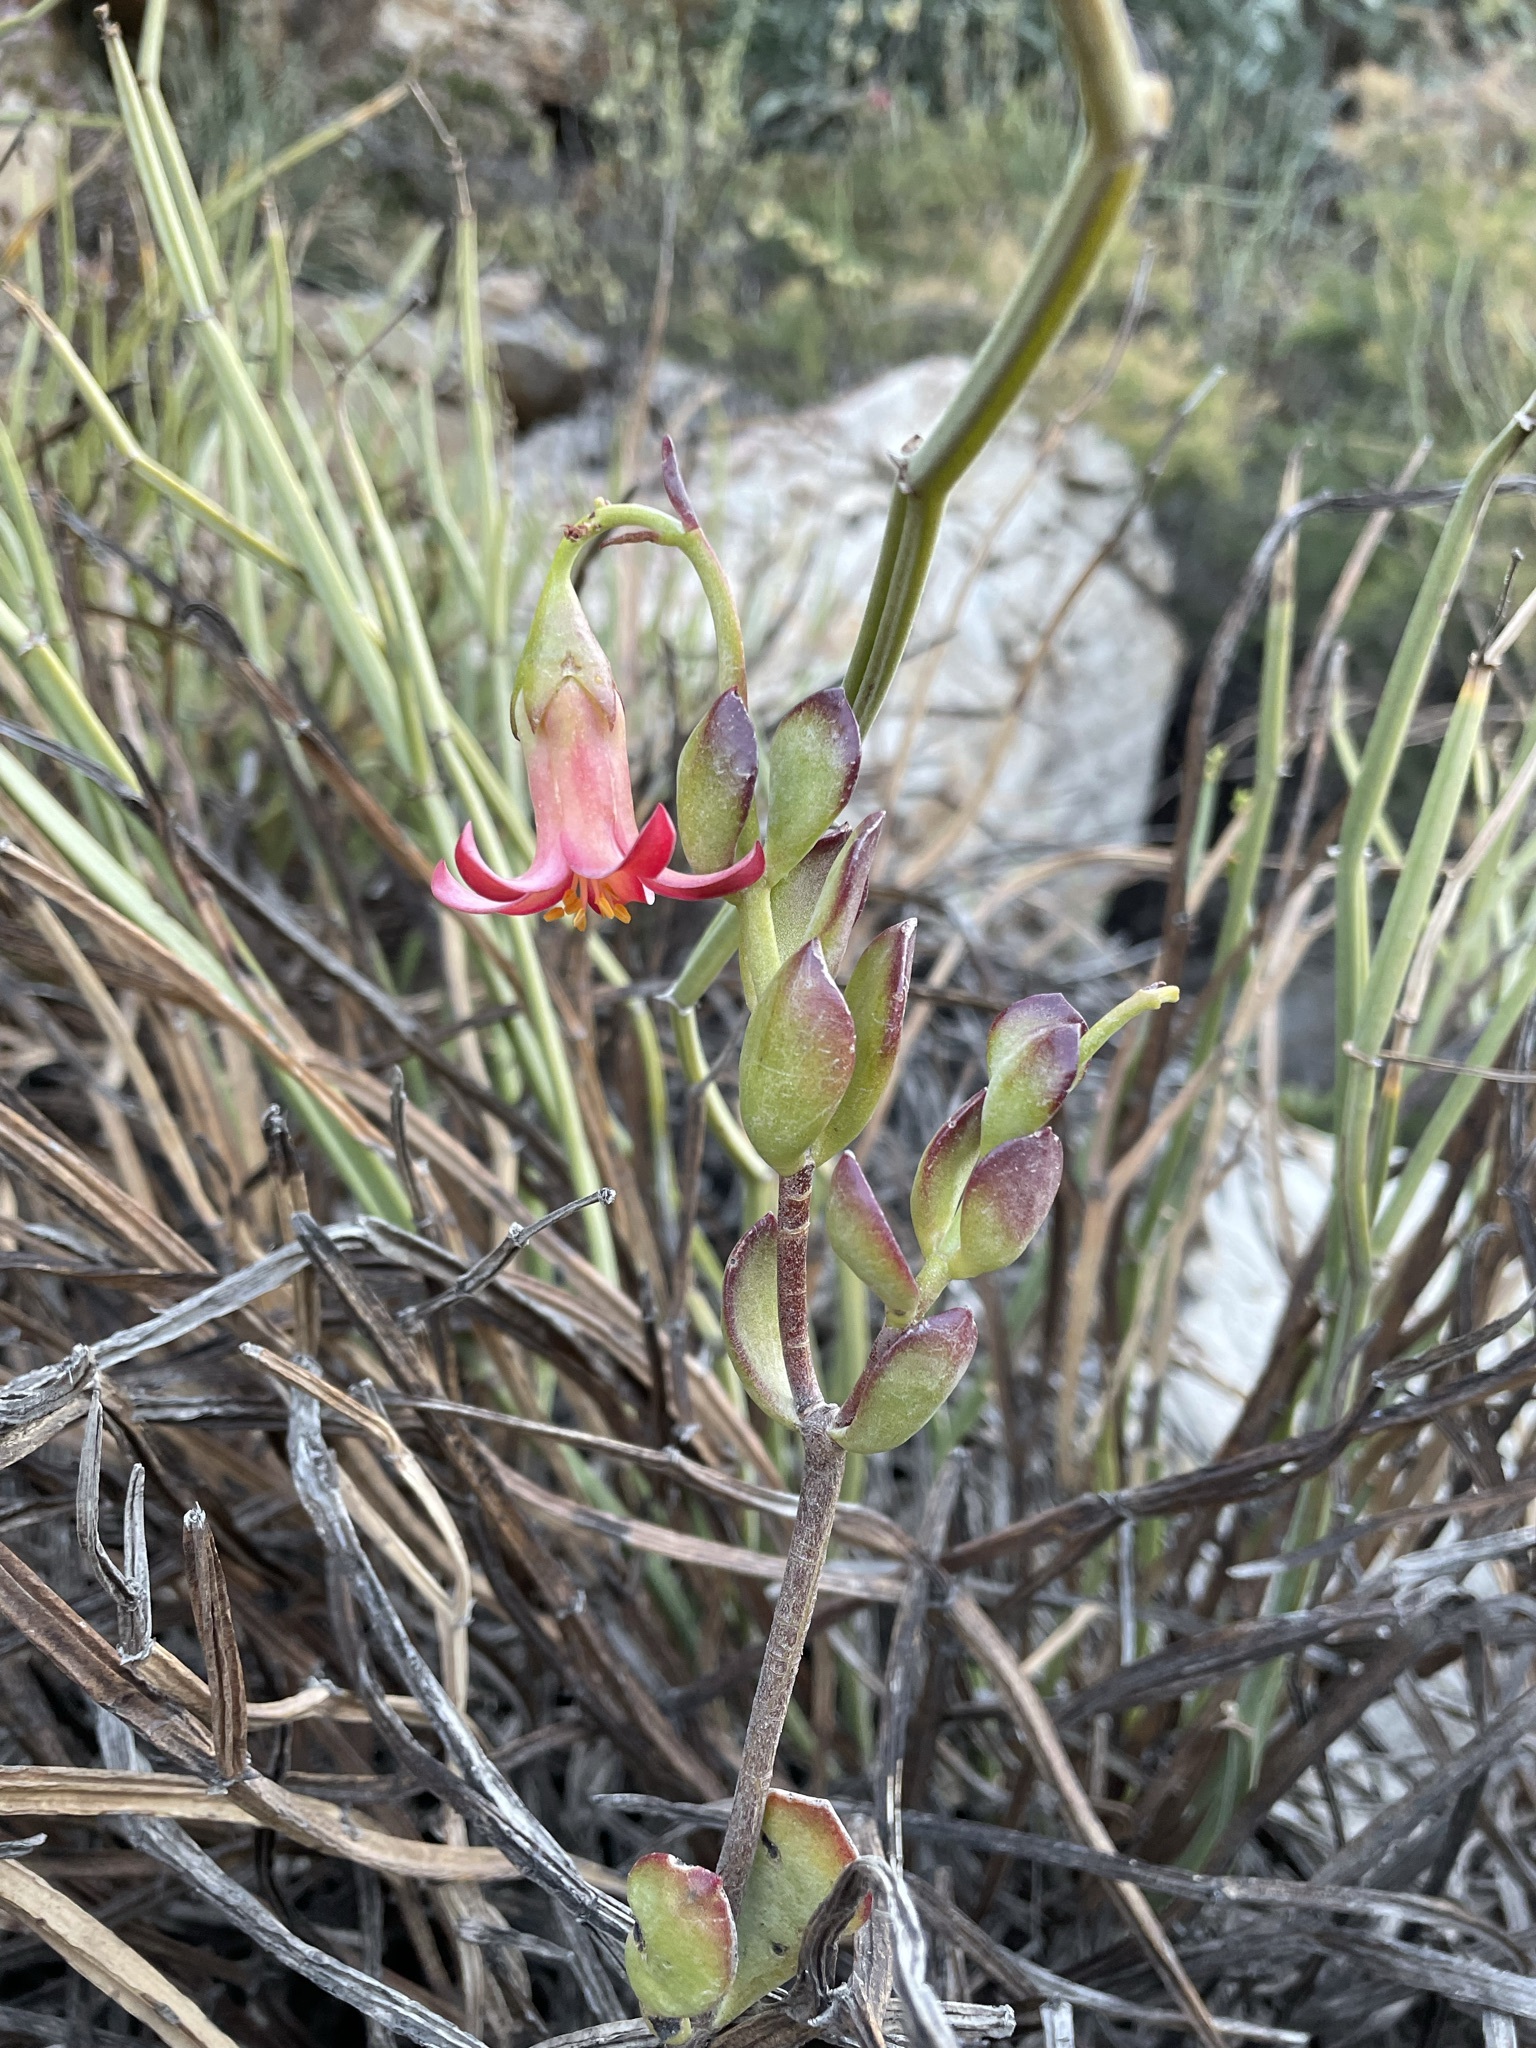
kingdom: Plantae
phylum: Tracheophyta
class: Magnoliopsida
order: Saxifragales
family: Crassulaceae
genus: Cotyledon
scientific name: Cotyledon woodii
